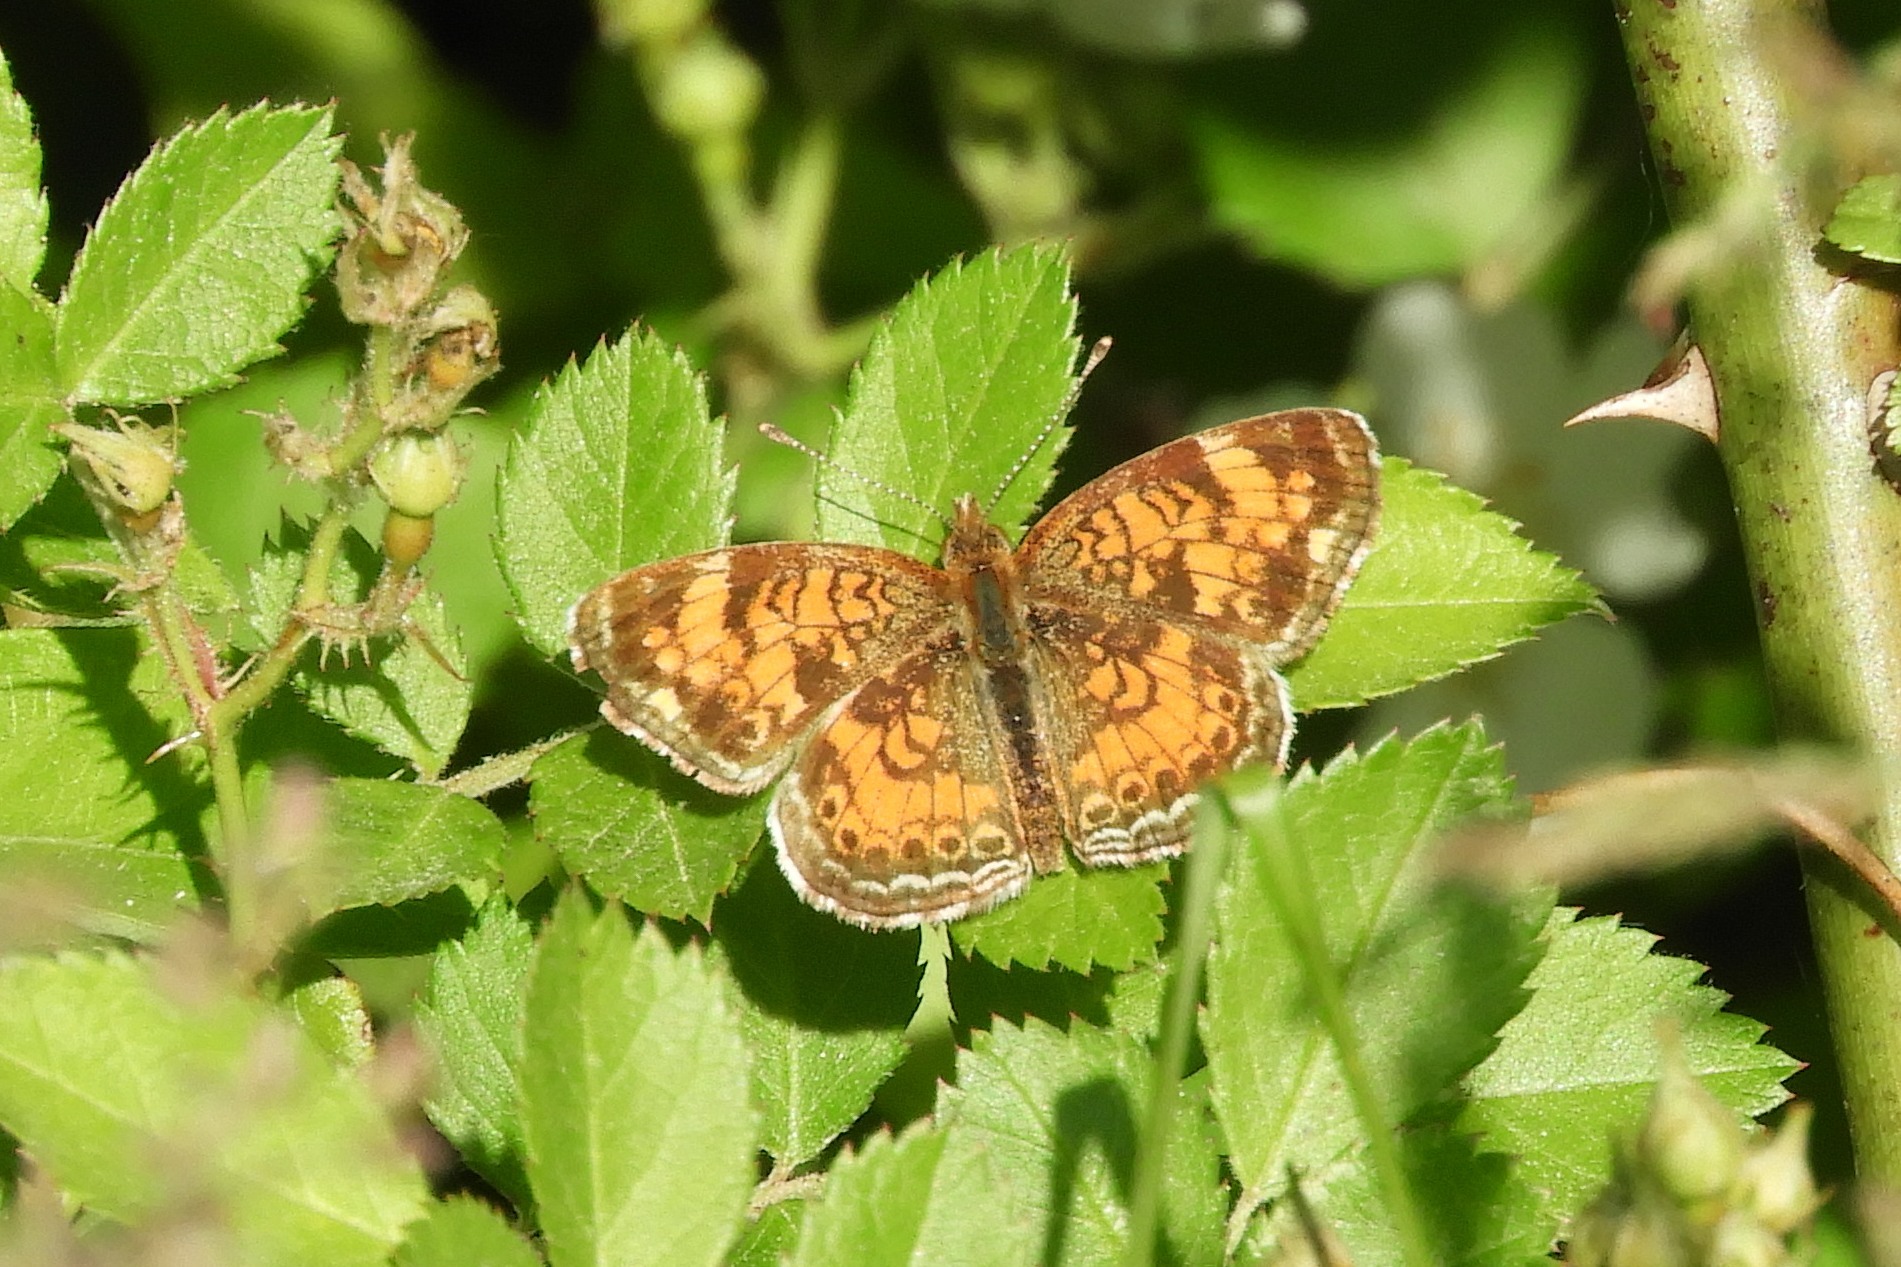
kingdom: Animalia
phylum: Arthropoda
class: Insecta
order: Lepidoptera
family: Nymphalidae
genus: Phyciodes
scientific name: Phyciodes tharos
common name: Pearl crescent
